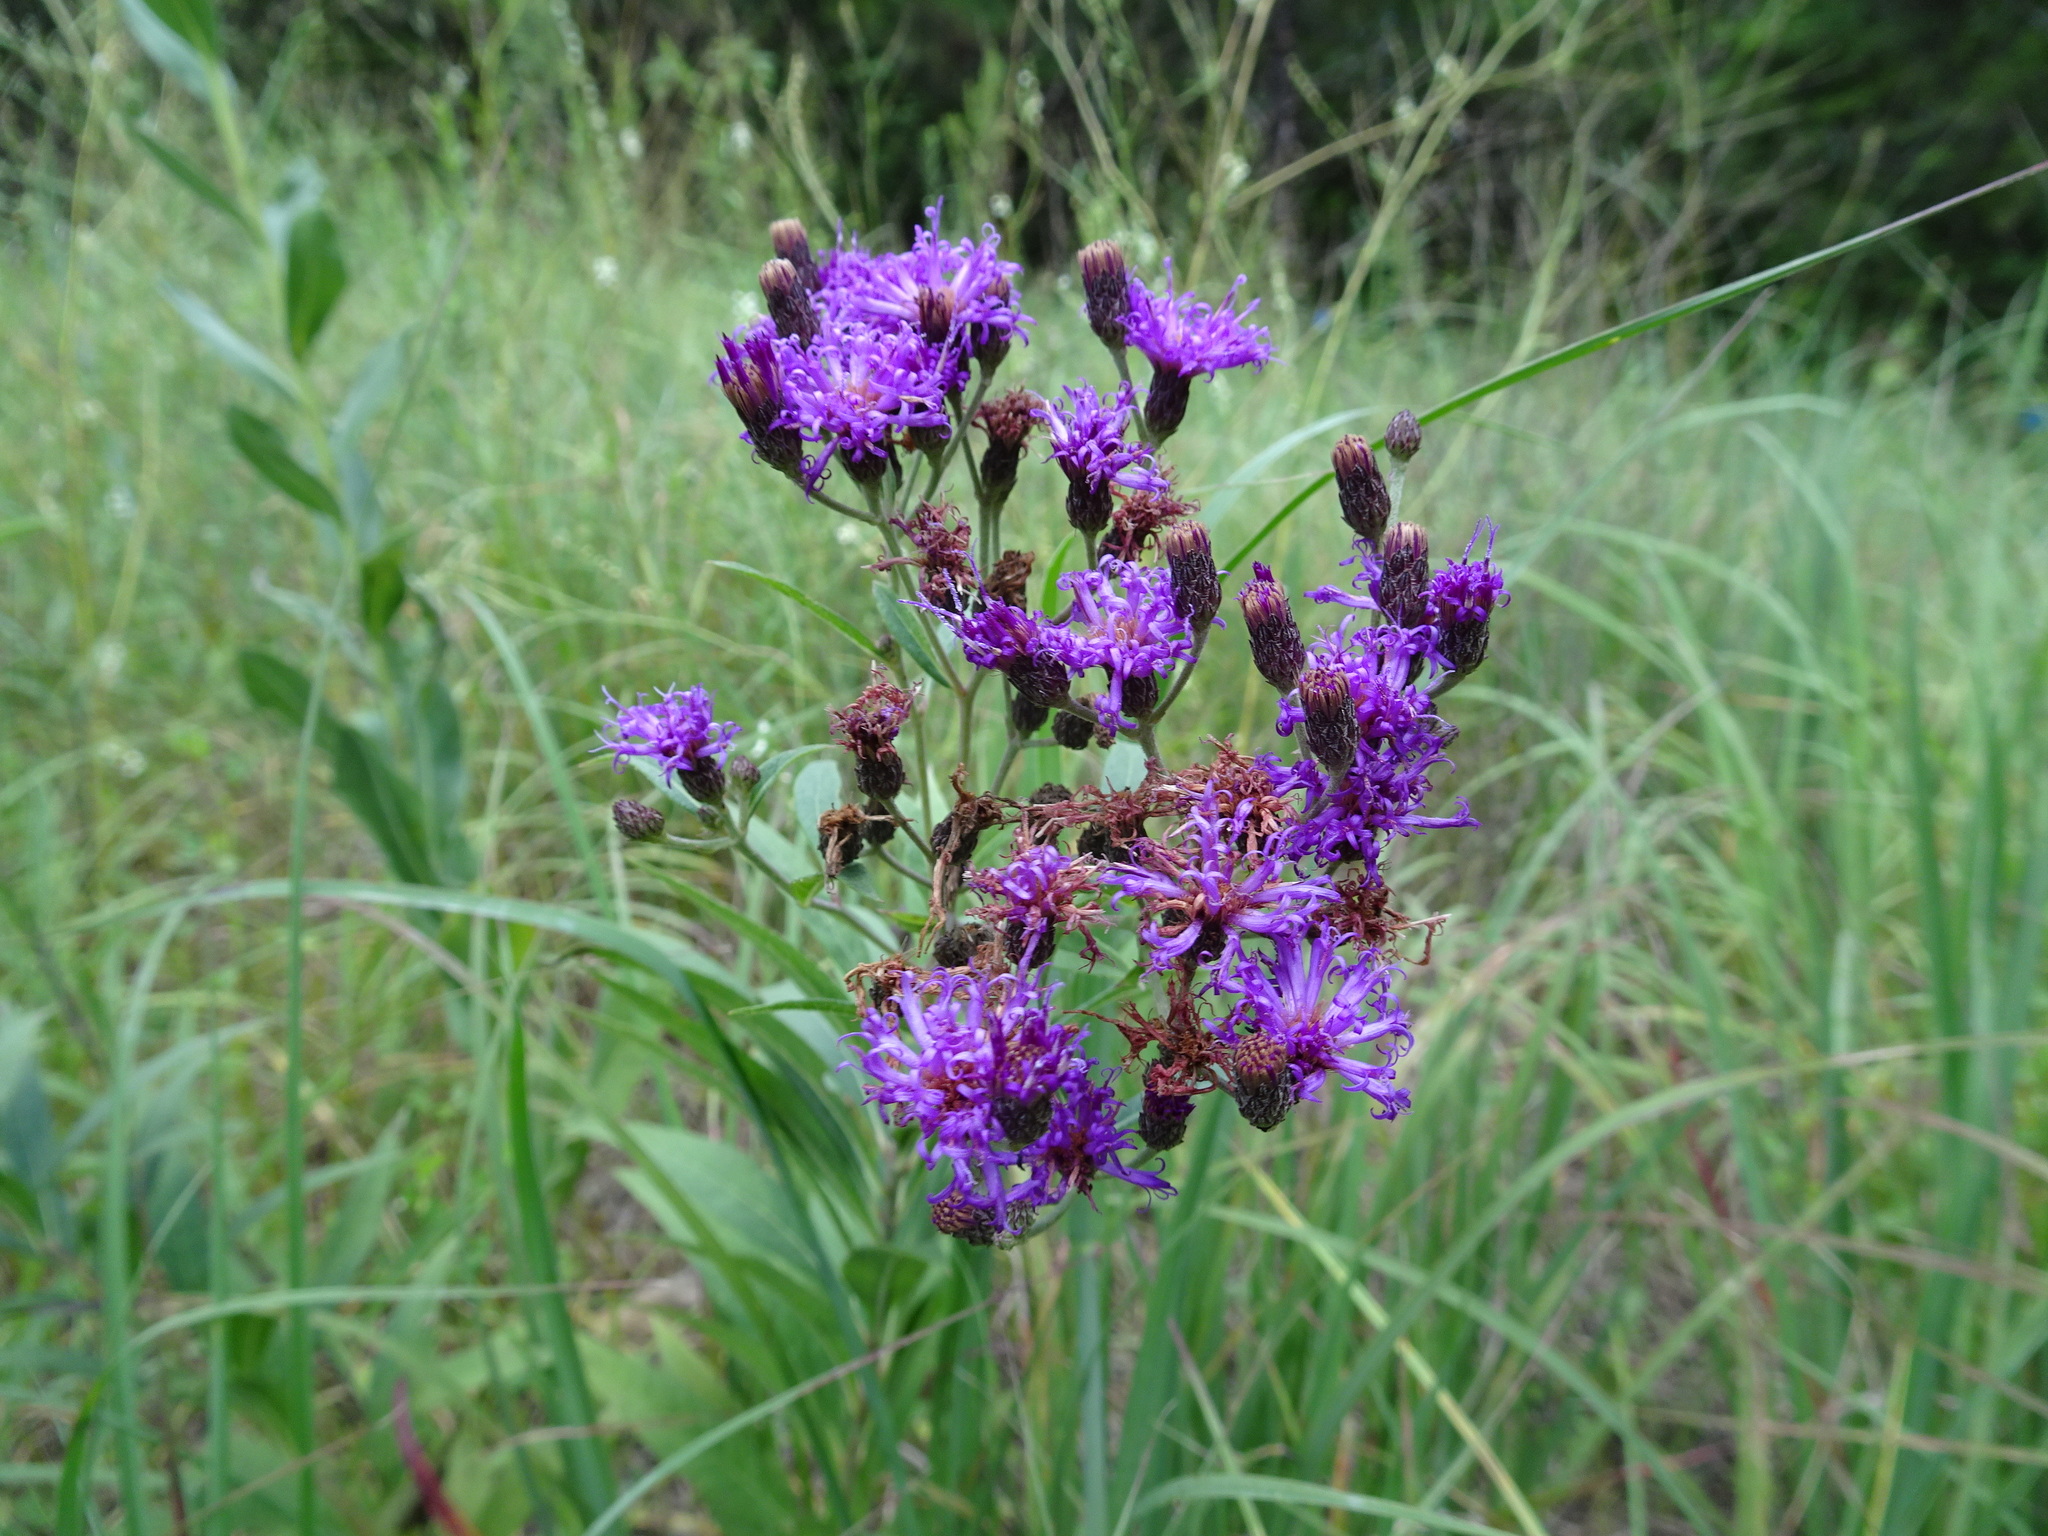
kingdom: Plantae
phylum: Tracheophyta
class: Magnoliopsida
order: Asterales
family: Asteraceae
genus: Vernonia
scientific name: Vernonia baldwinii
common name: Western ironweed
